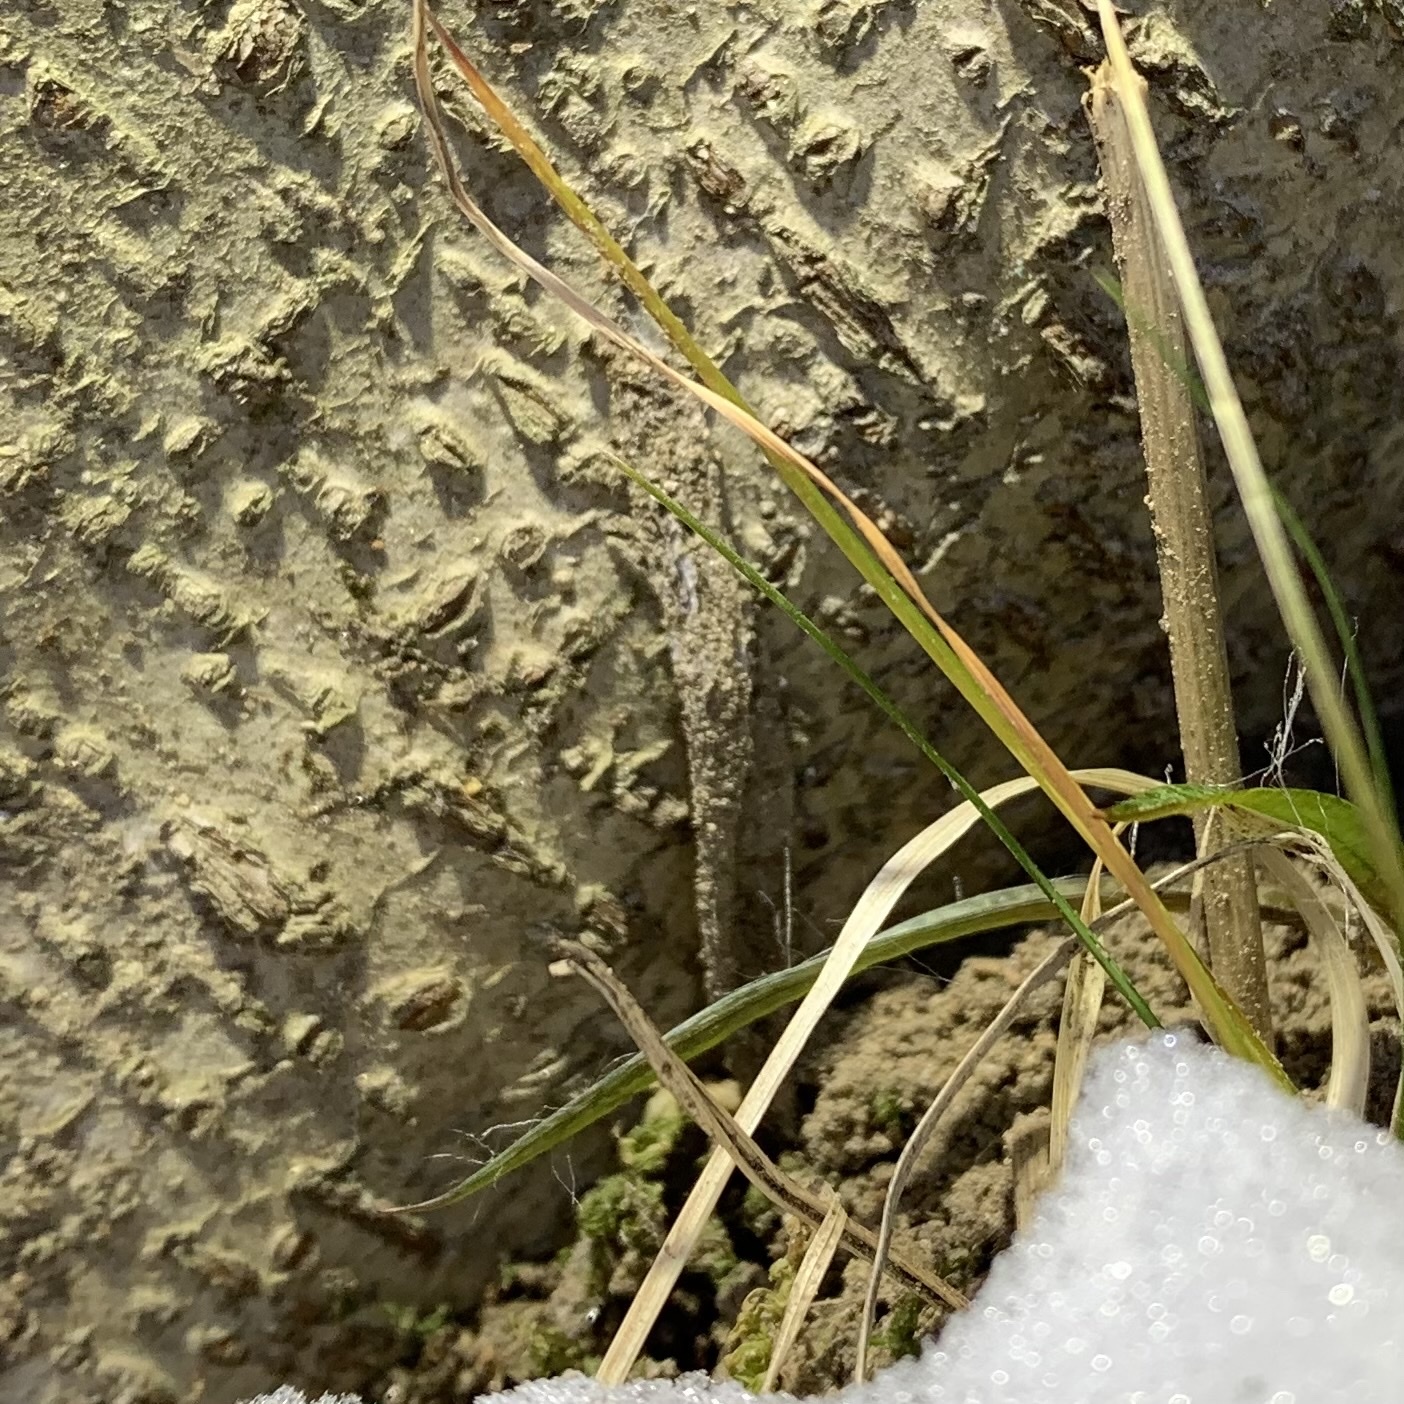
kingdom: Animalia
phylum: Arthropoda
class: Arachnida
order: Araneae
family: Atypidae
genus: Atypus
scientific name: Atypus karschi
